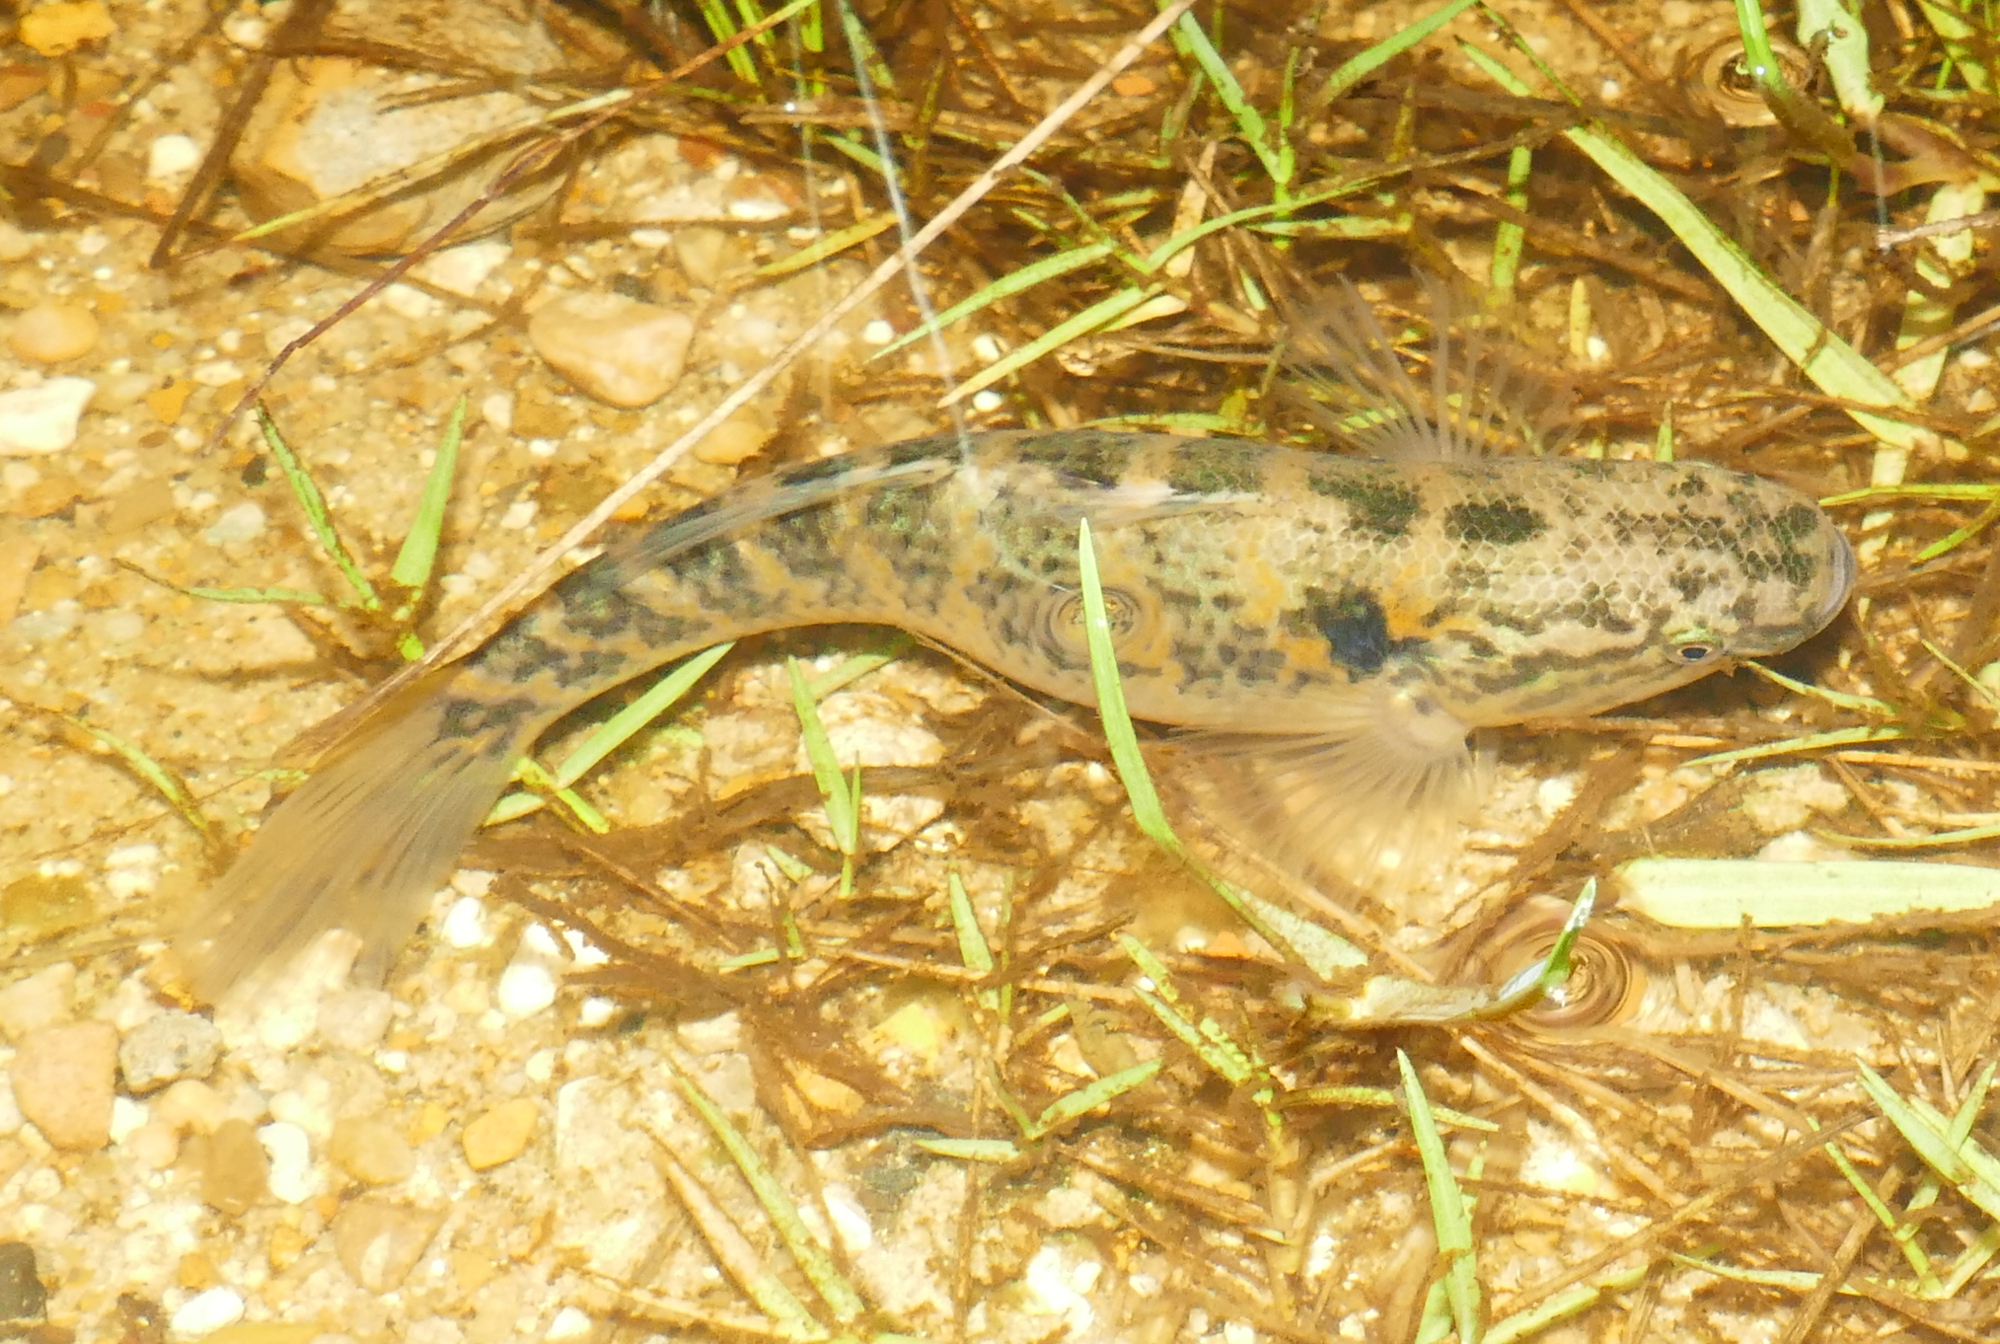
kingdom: Animalia
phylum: Chordata
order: Perciformes
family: Eleotridae
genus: Dormitator
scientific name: Dormitator maculatus
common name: Fat sleeper
